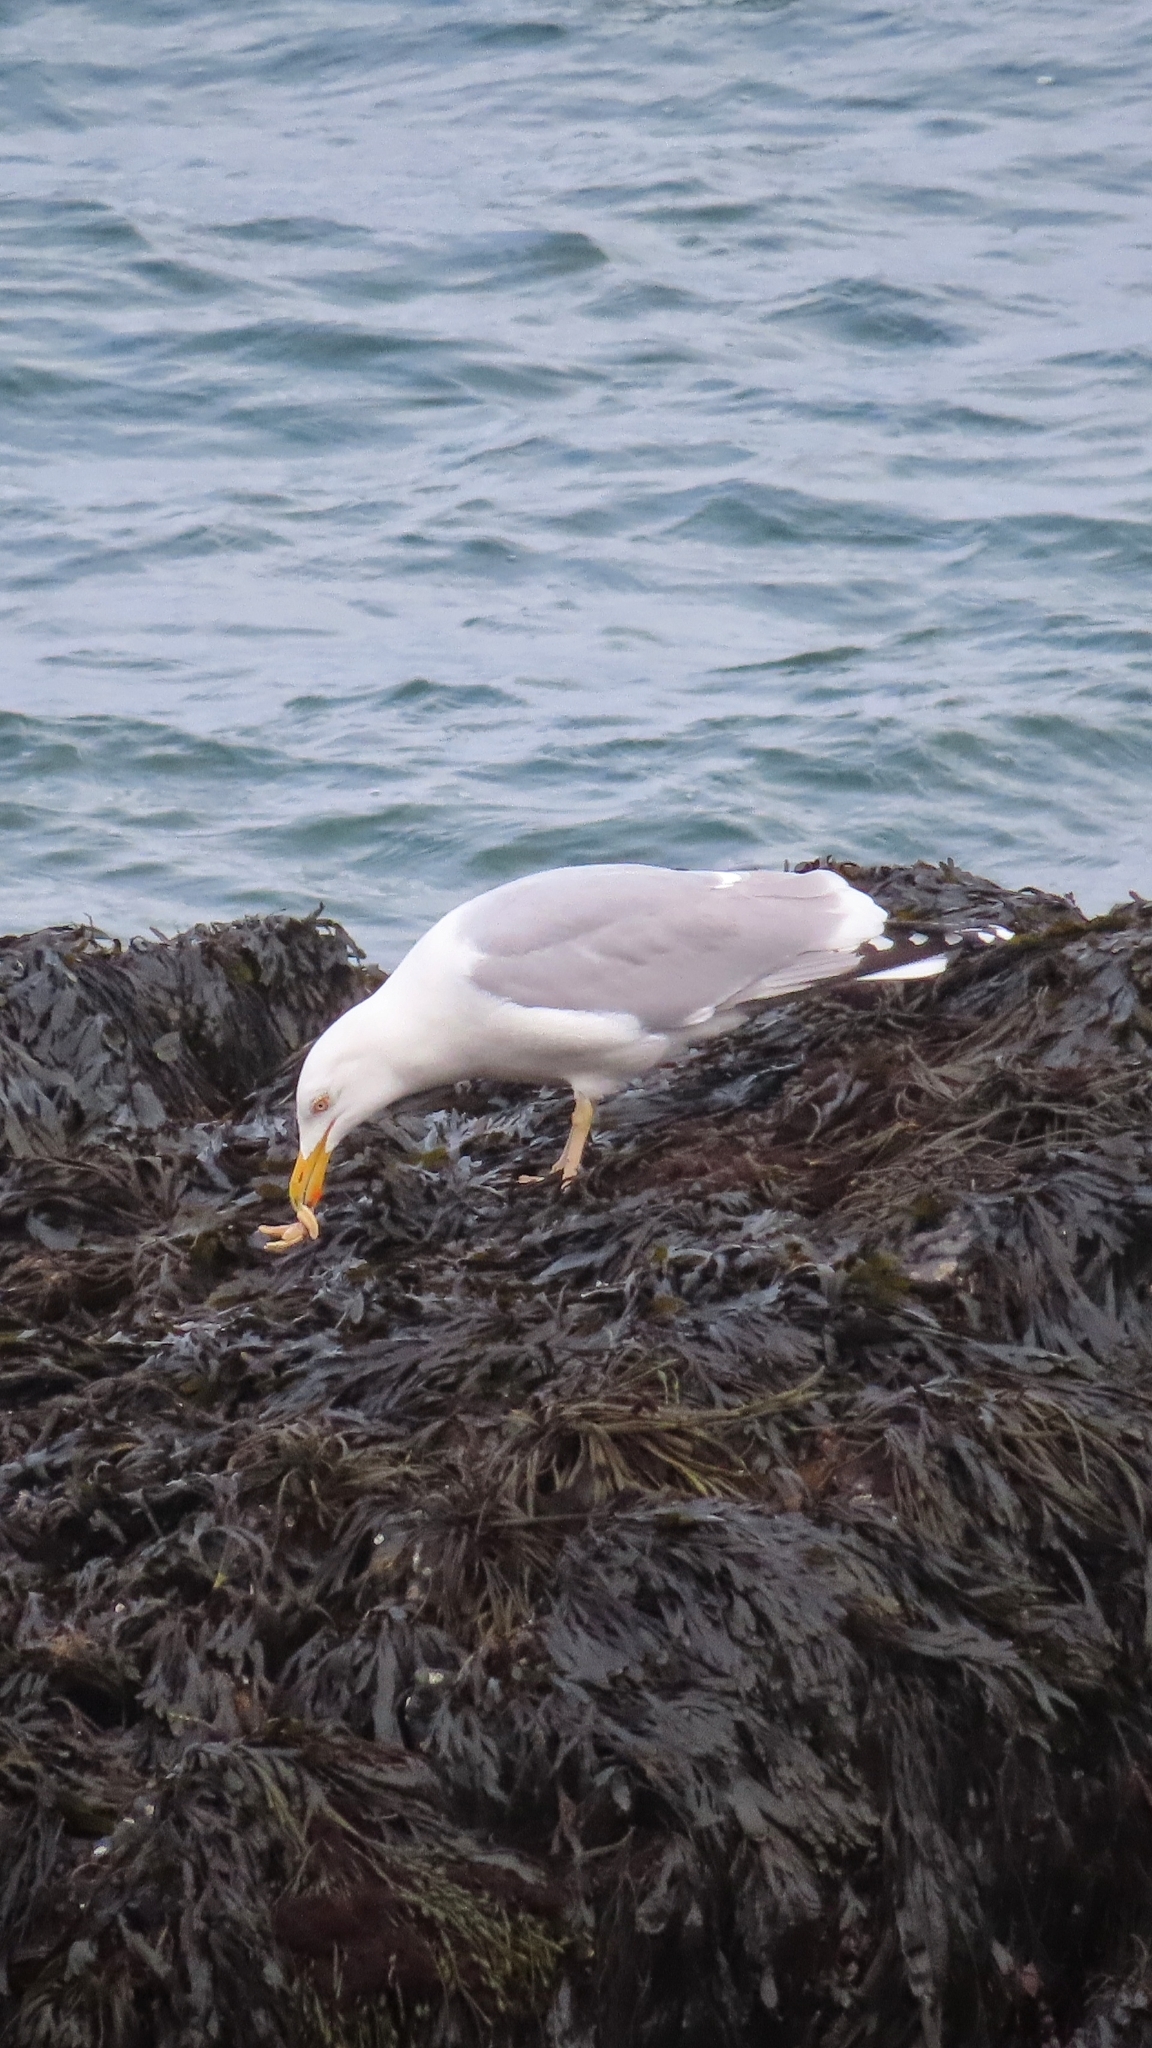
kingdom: Animalia
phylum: Chordata
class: Aves
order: Charadriiformes
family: Laridae
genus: Larus
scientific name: Larus argentatus
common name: Herring gull
